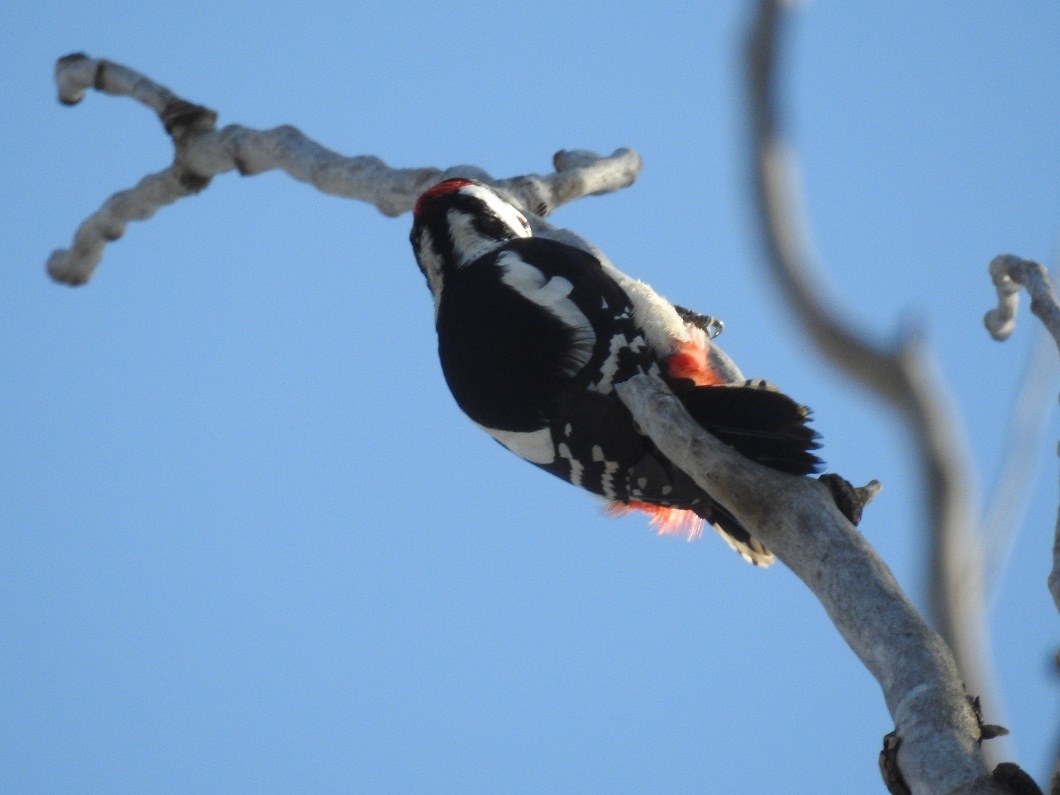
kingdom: Animalia
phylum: Chordata
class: Aves
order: Piciformes
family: Picidae
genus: Dendrocopos
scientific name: Dendrocopos major
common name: Great spotted woodpecker
